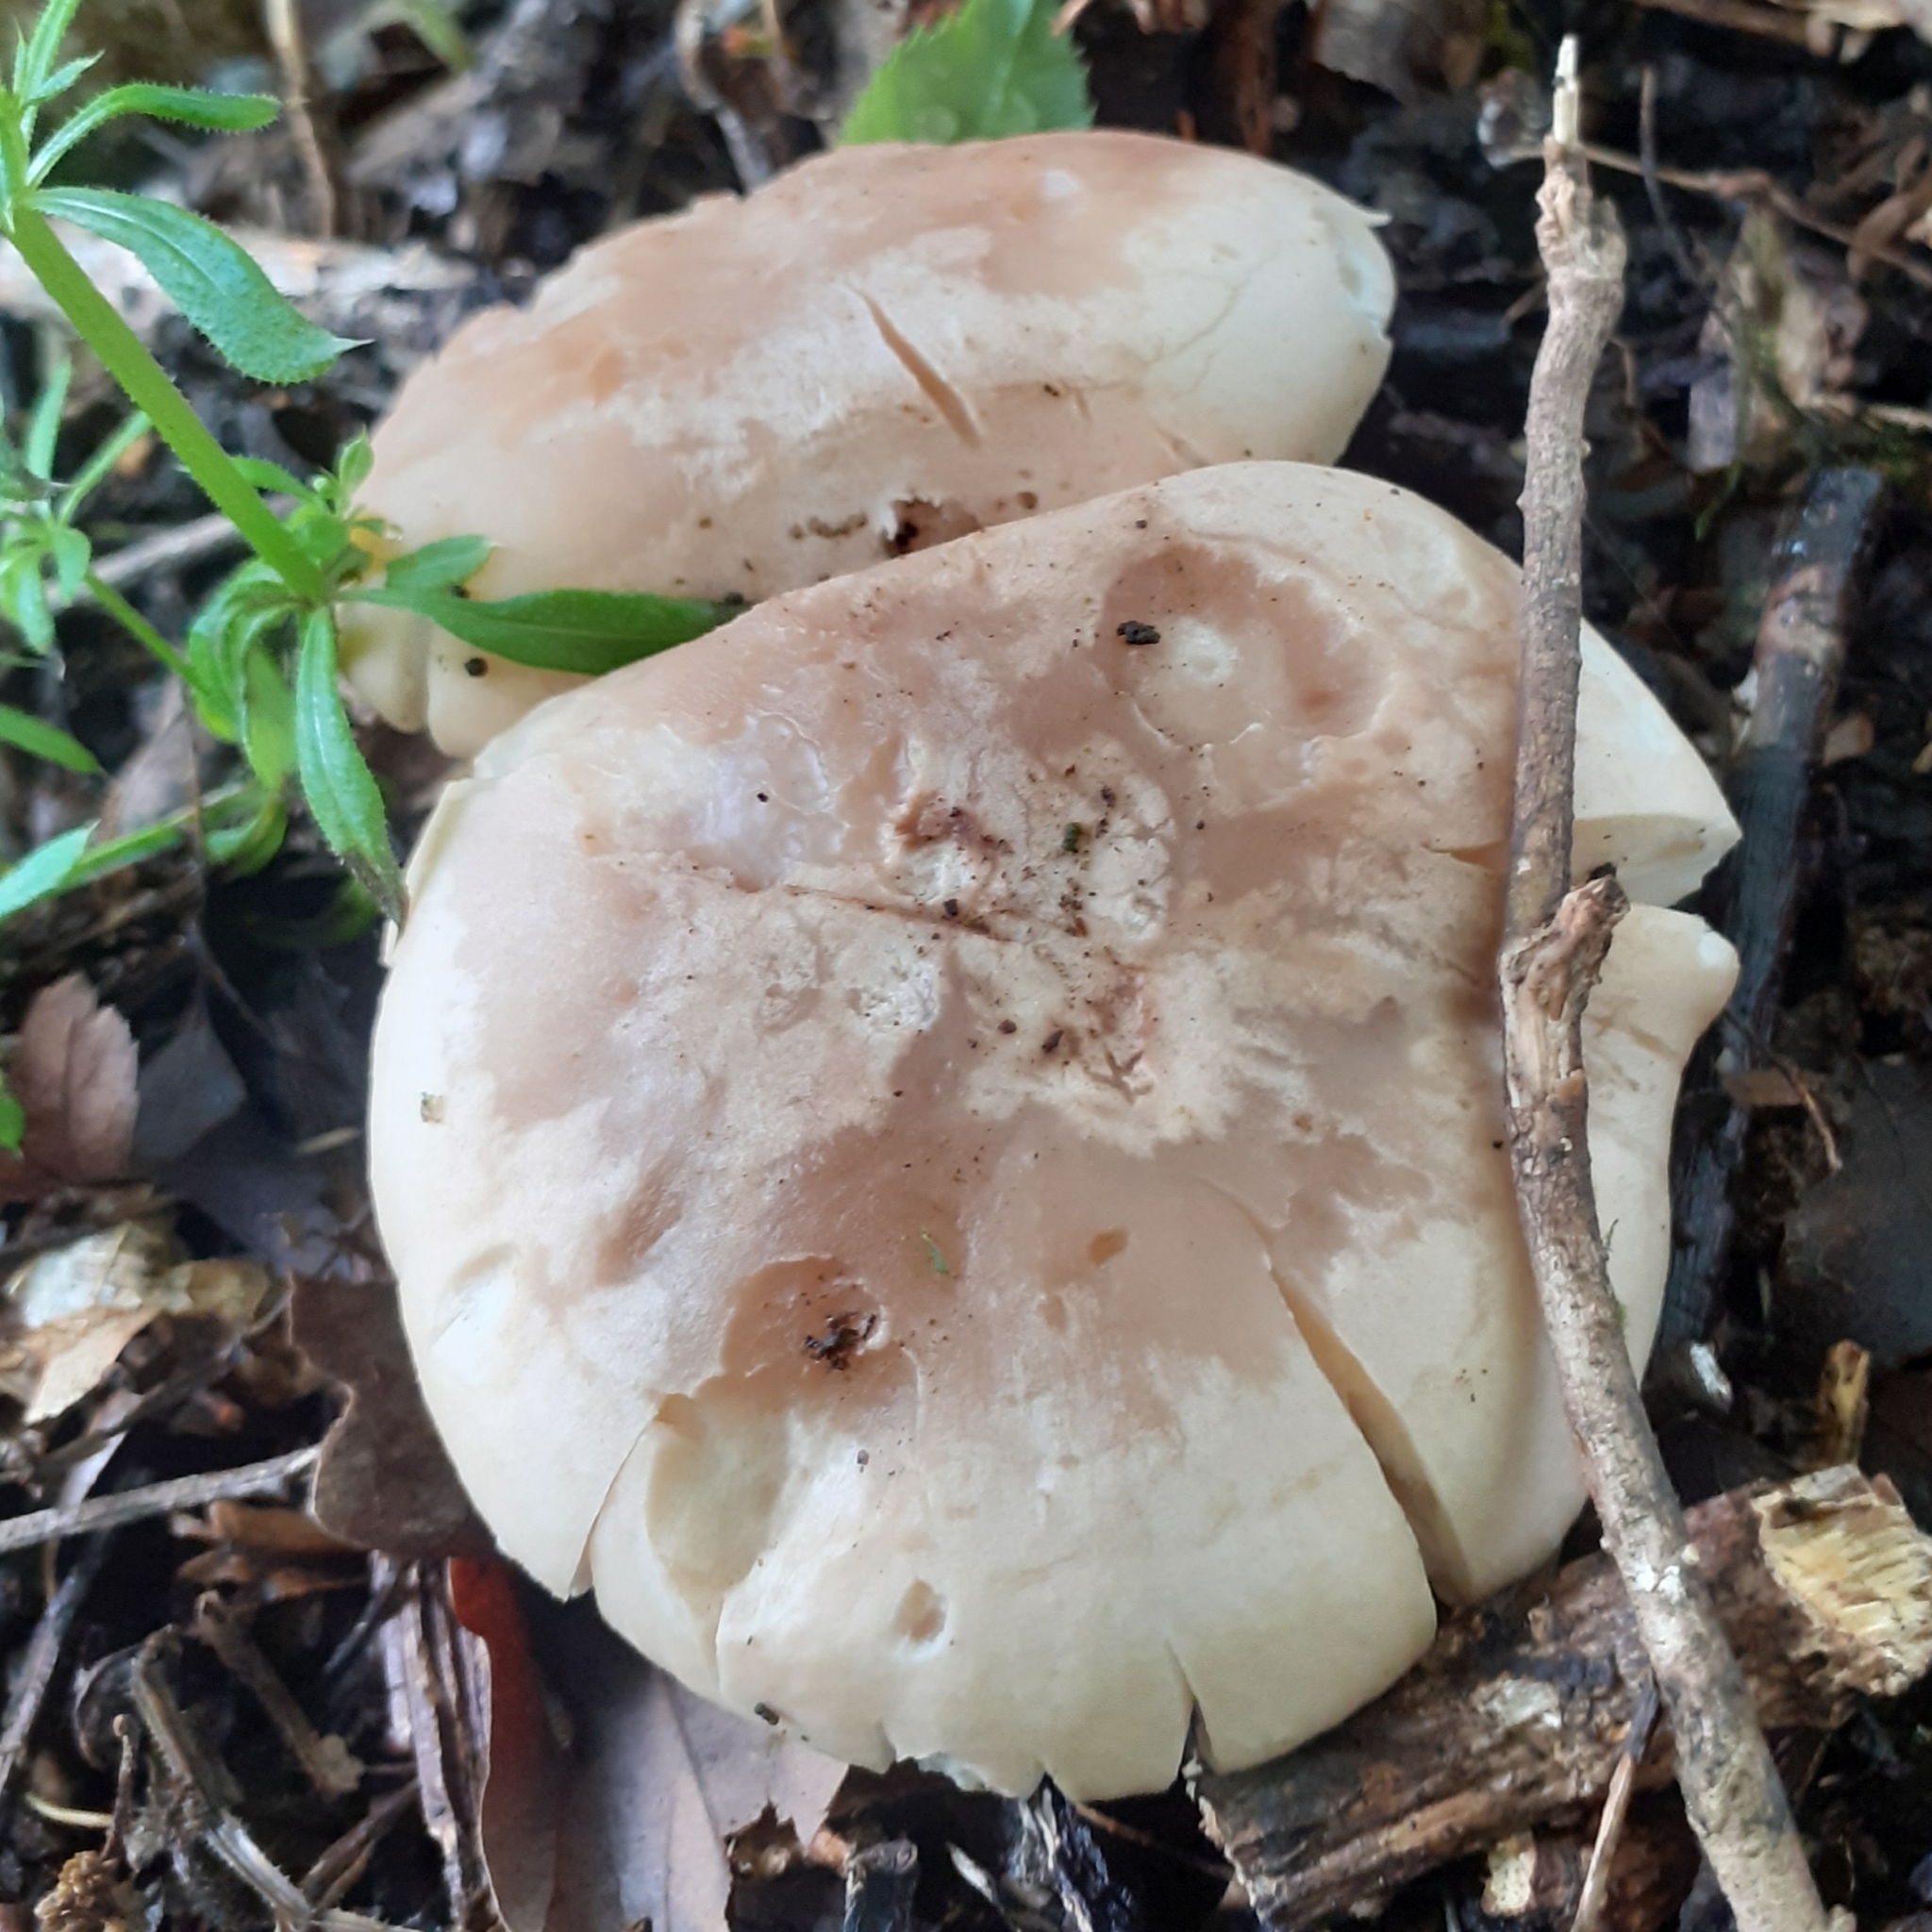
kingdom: Fungi
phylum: Basidiomycota
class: Agaricomycetes
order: Agaricales
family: Lyophyllaceae
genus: Calocybe
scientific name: Calocybe gambosa
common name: St. george's mushroom
